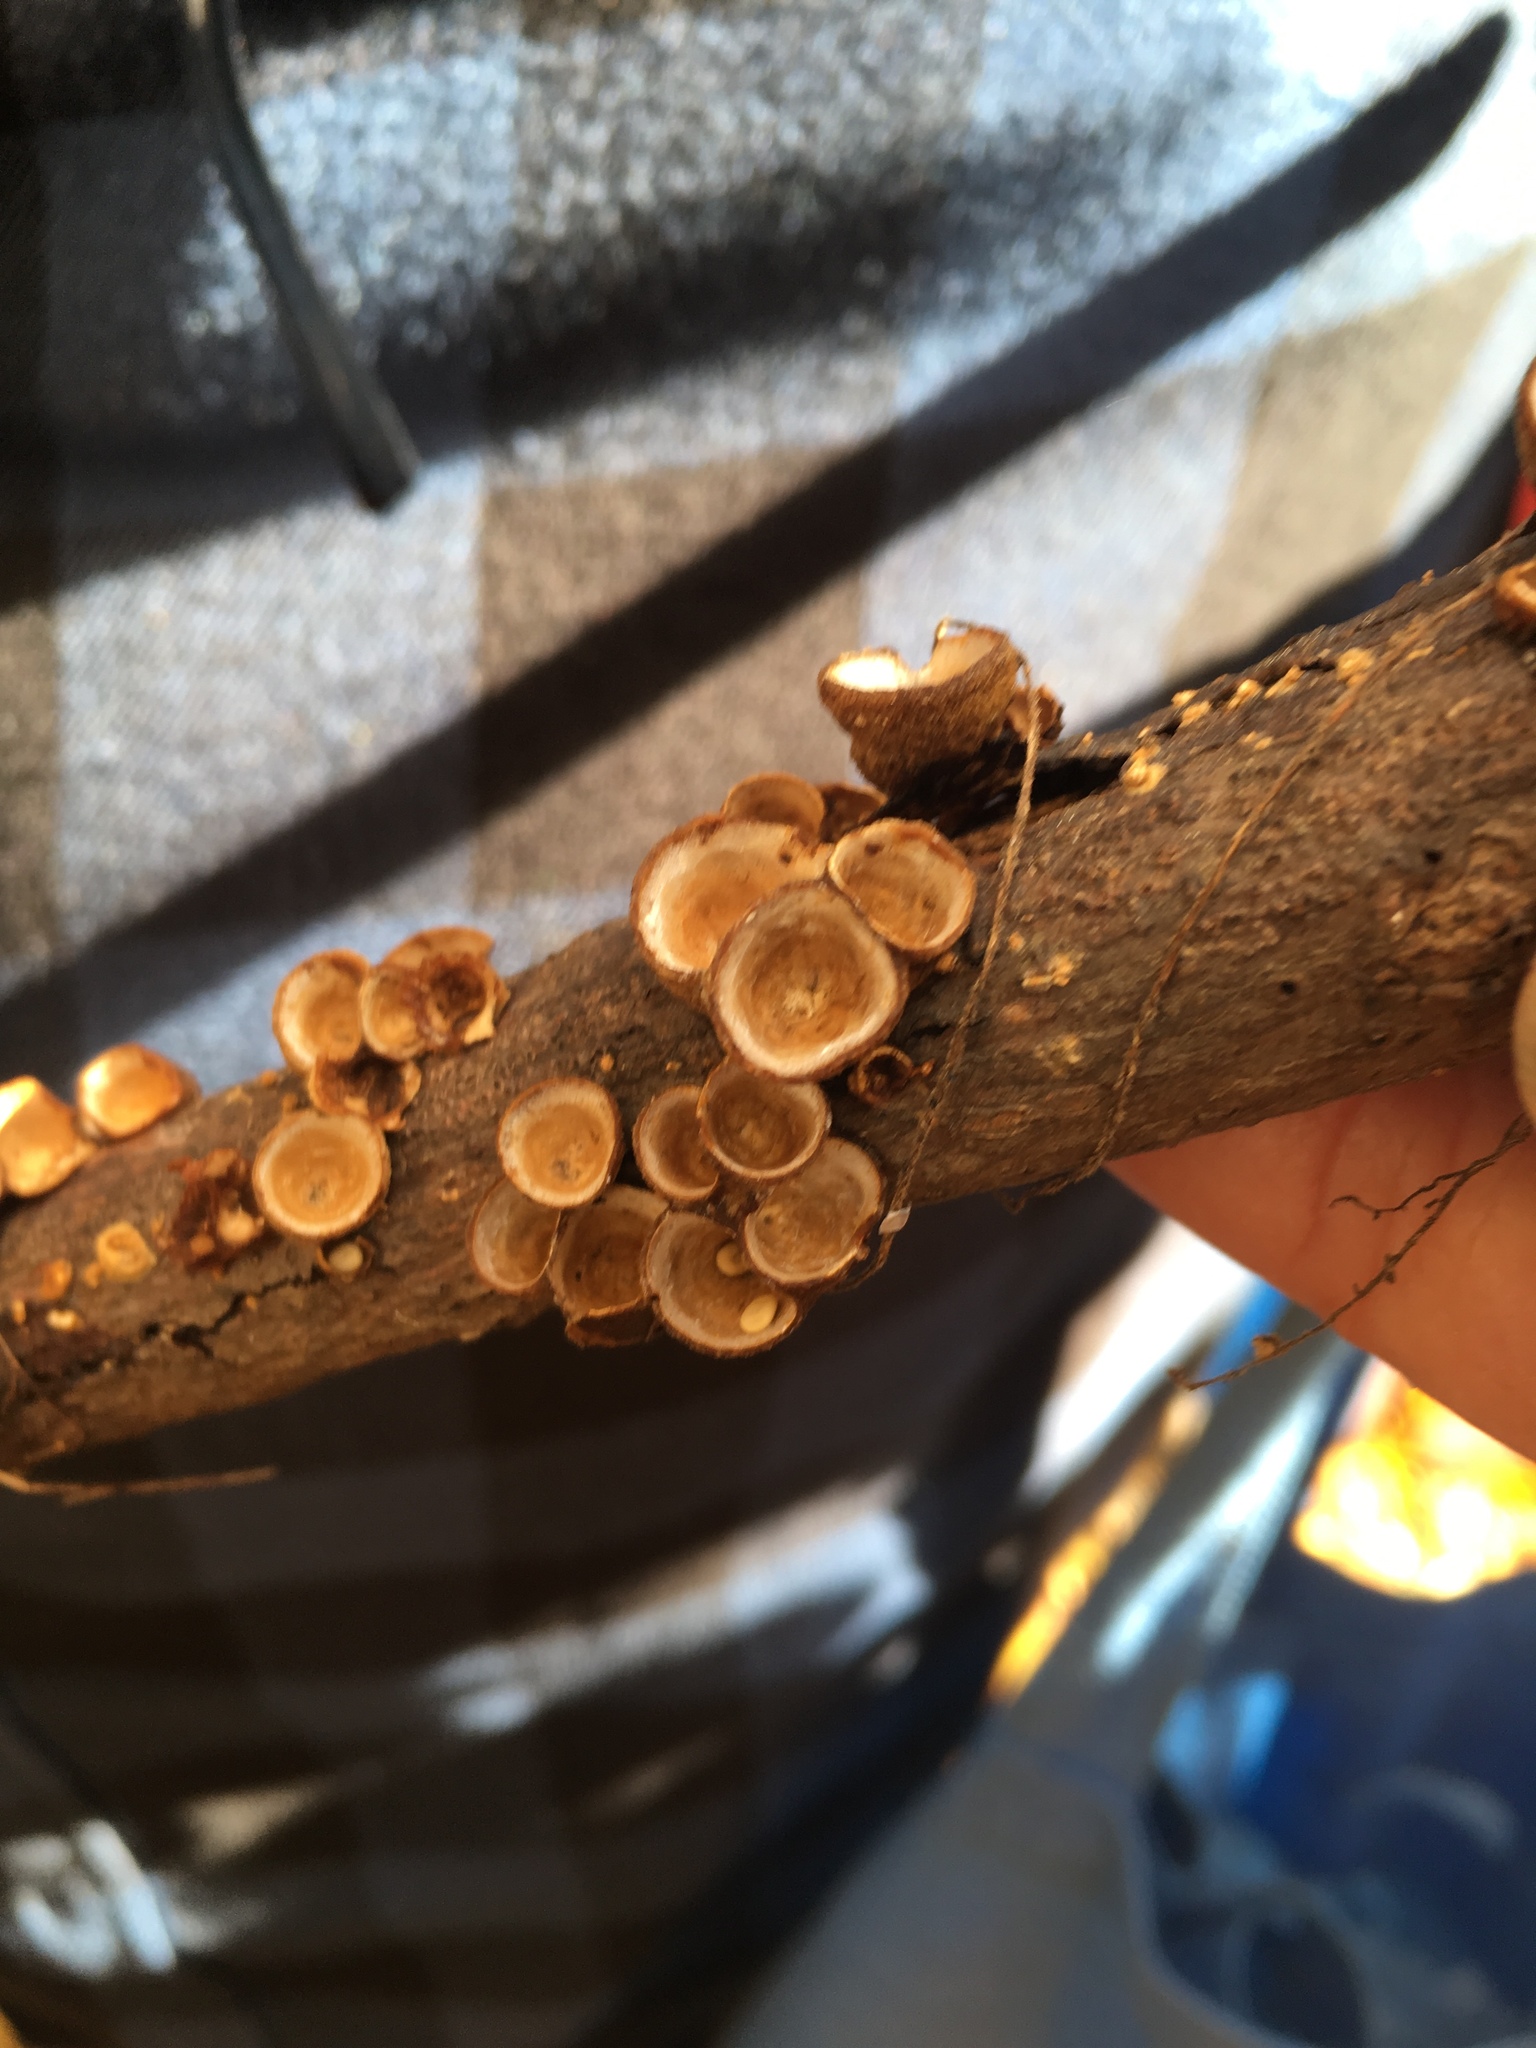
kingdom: Fungi
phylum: Basidiomycota
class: Agaricomycetes
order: Agaricales
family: Nidulariaceae
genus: Crucibulum
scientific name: Crucibulum laeve
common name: Common bird's nest
